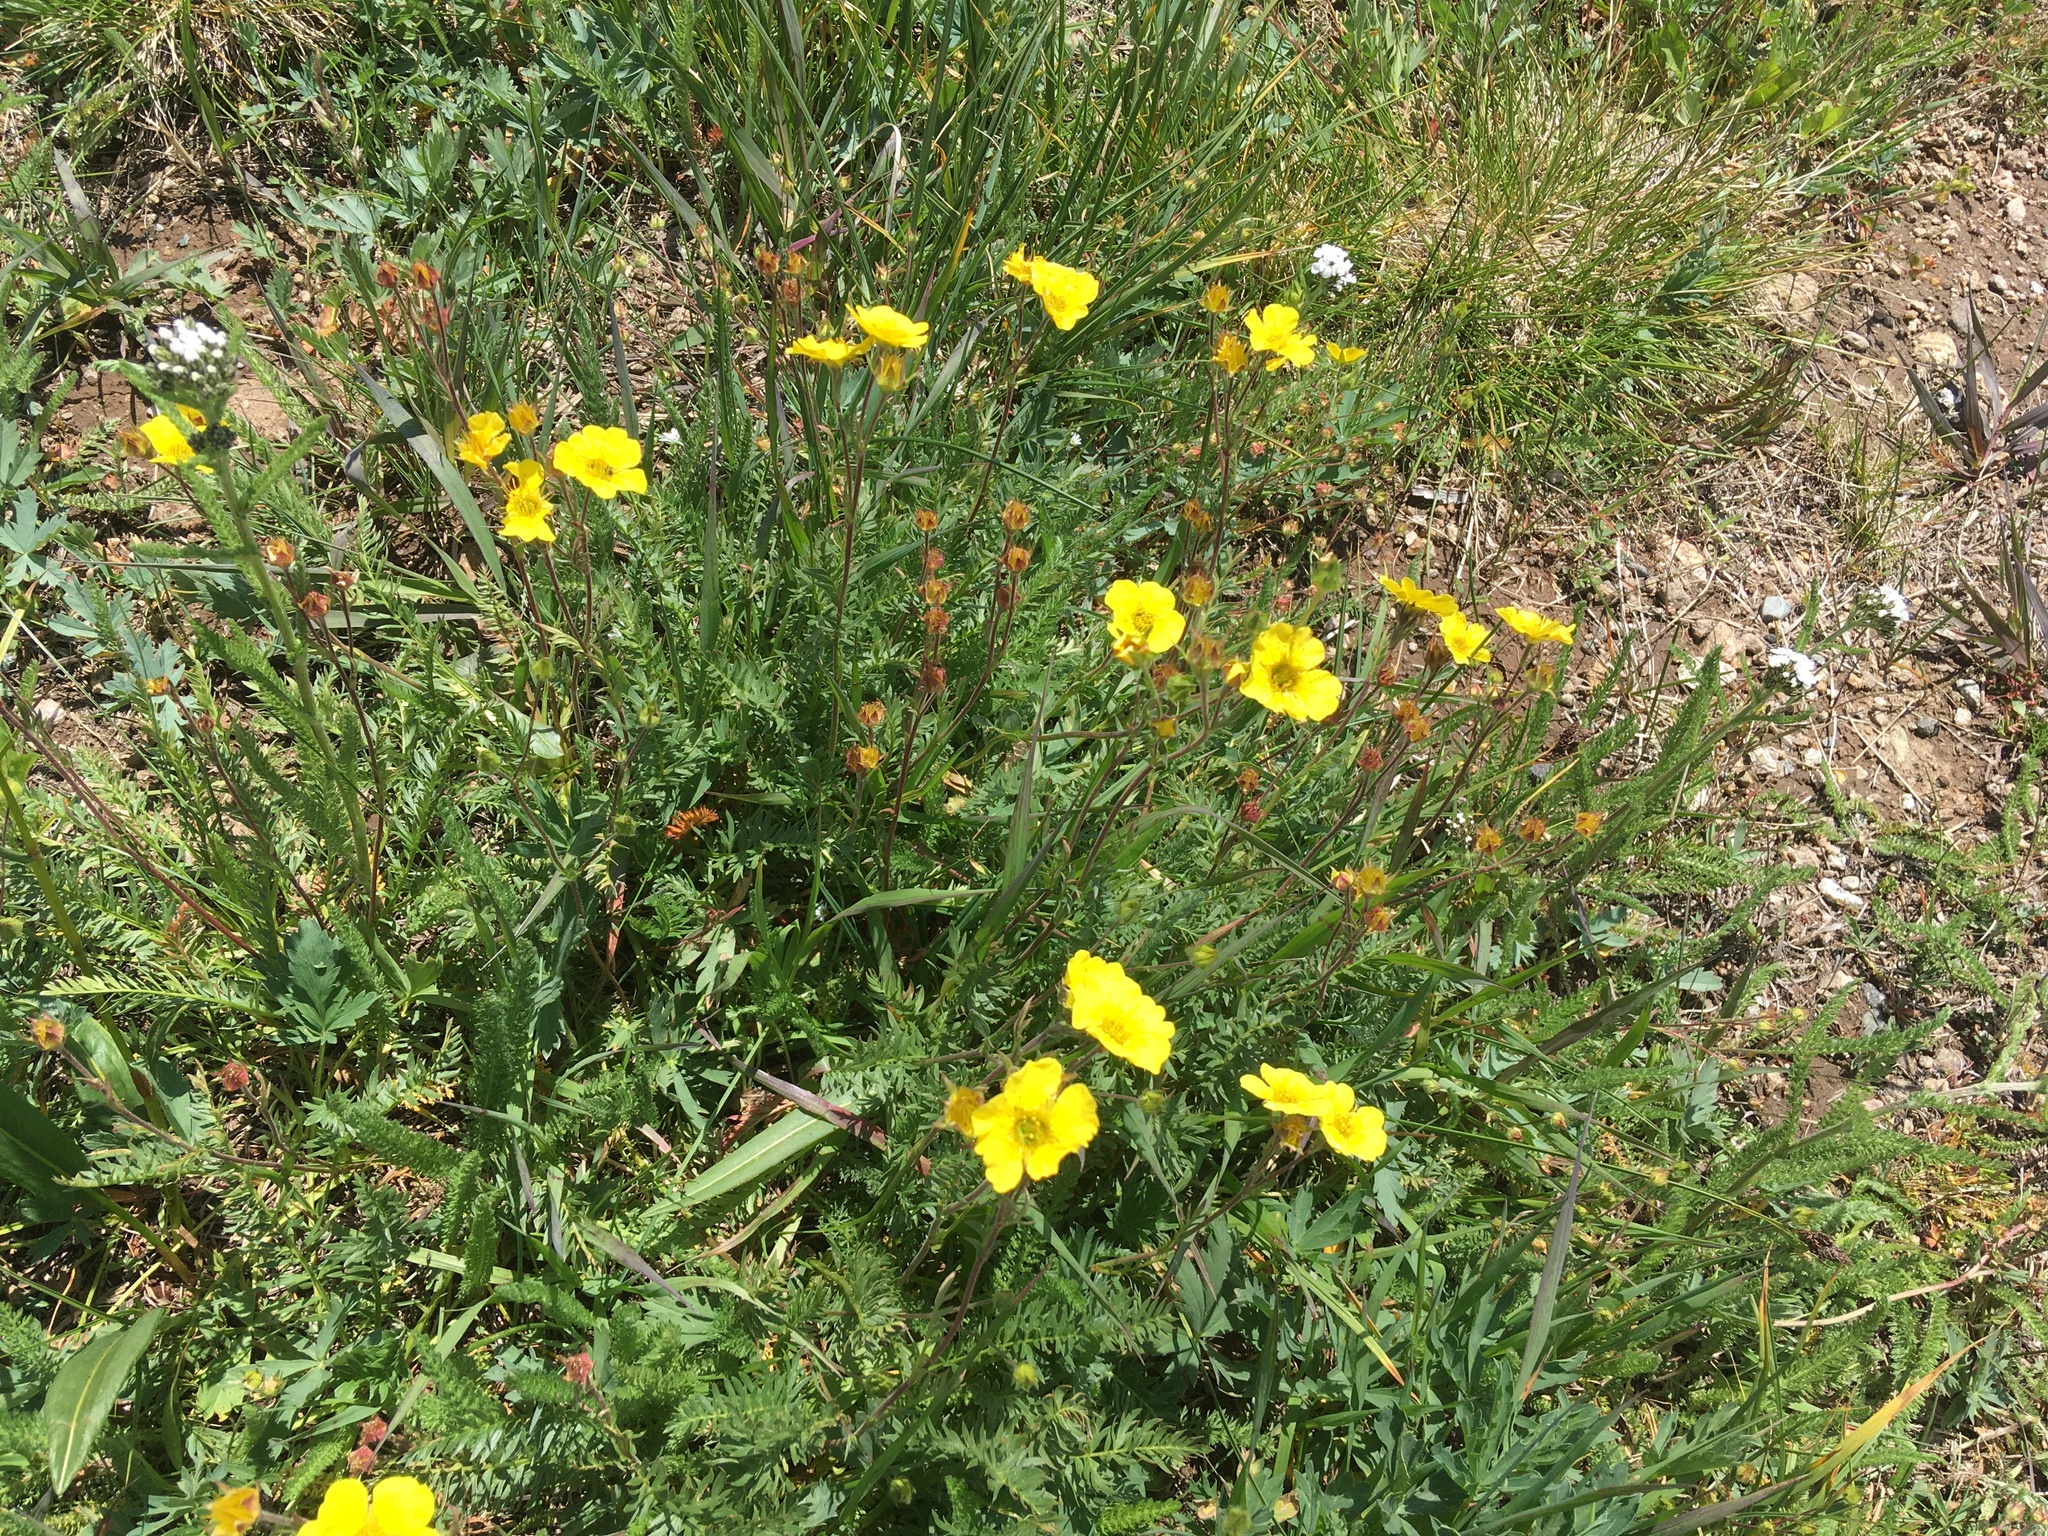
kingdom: Plantae
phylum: Tracheophyta
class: Magnoliopsida
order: Rosales
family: Rosaceae
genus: Geum
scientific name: Geum rossii
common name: Alpine avens
